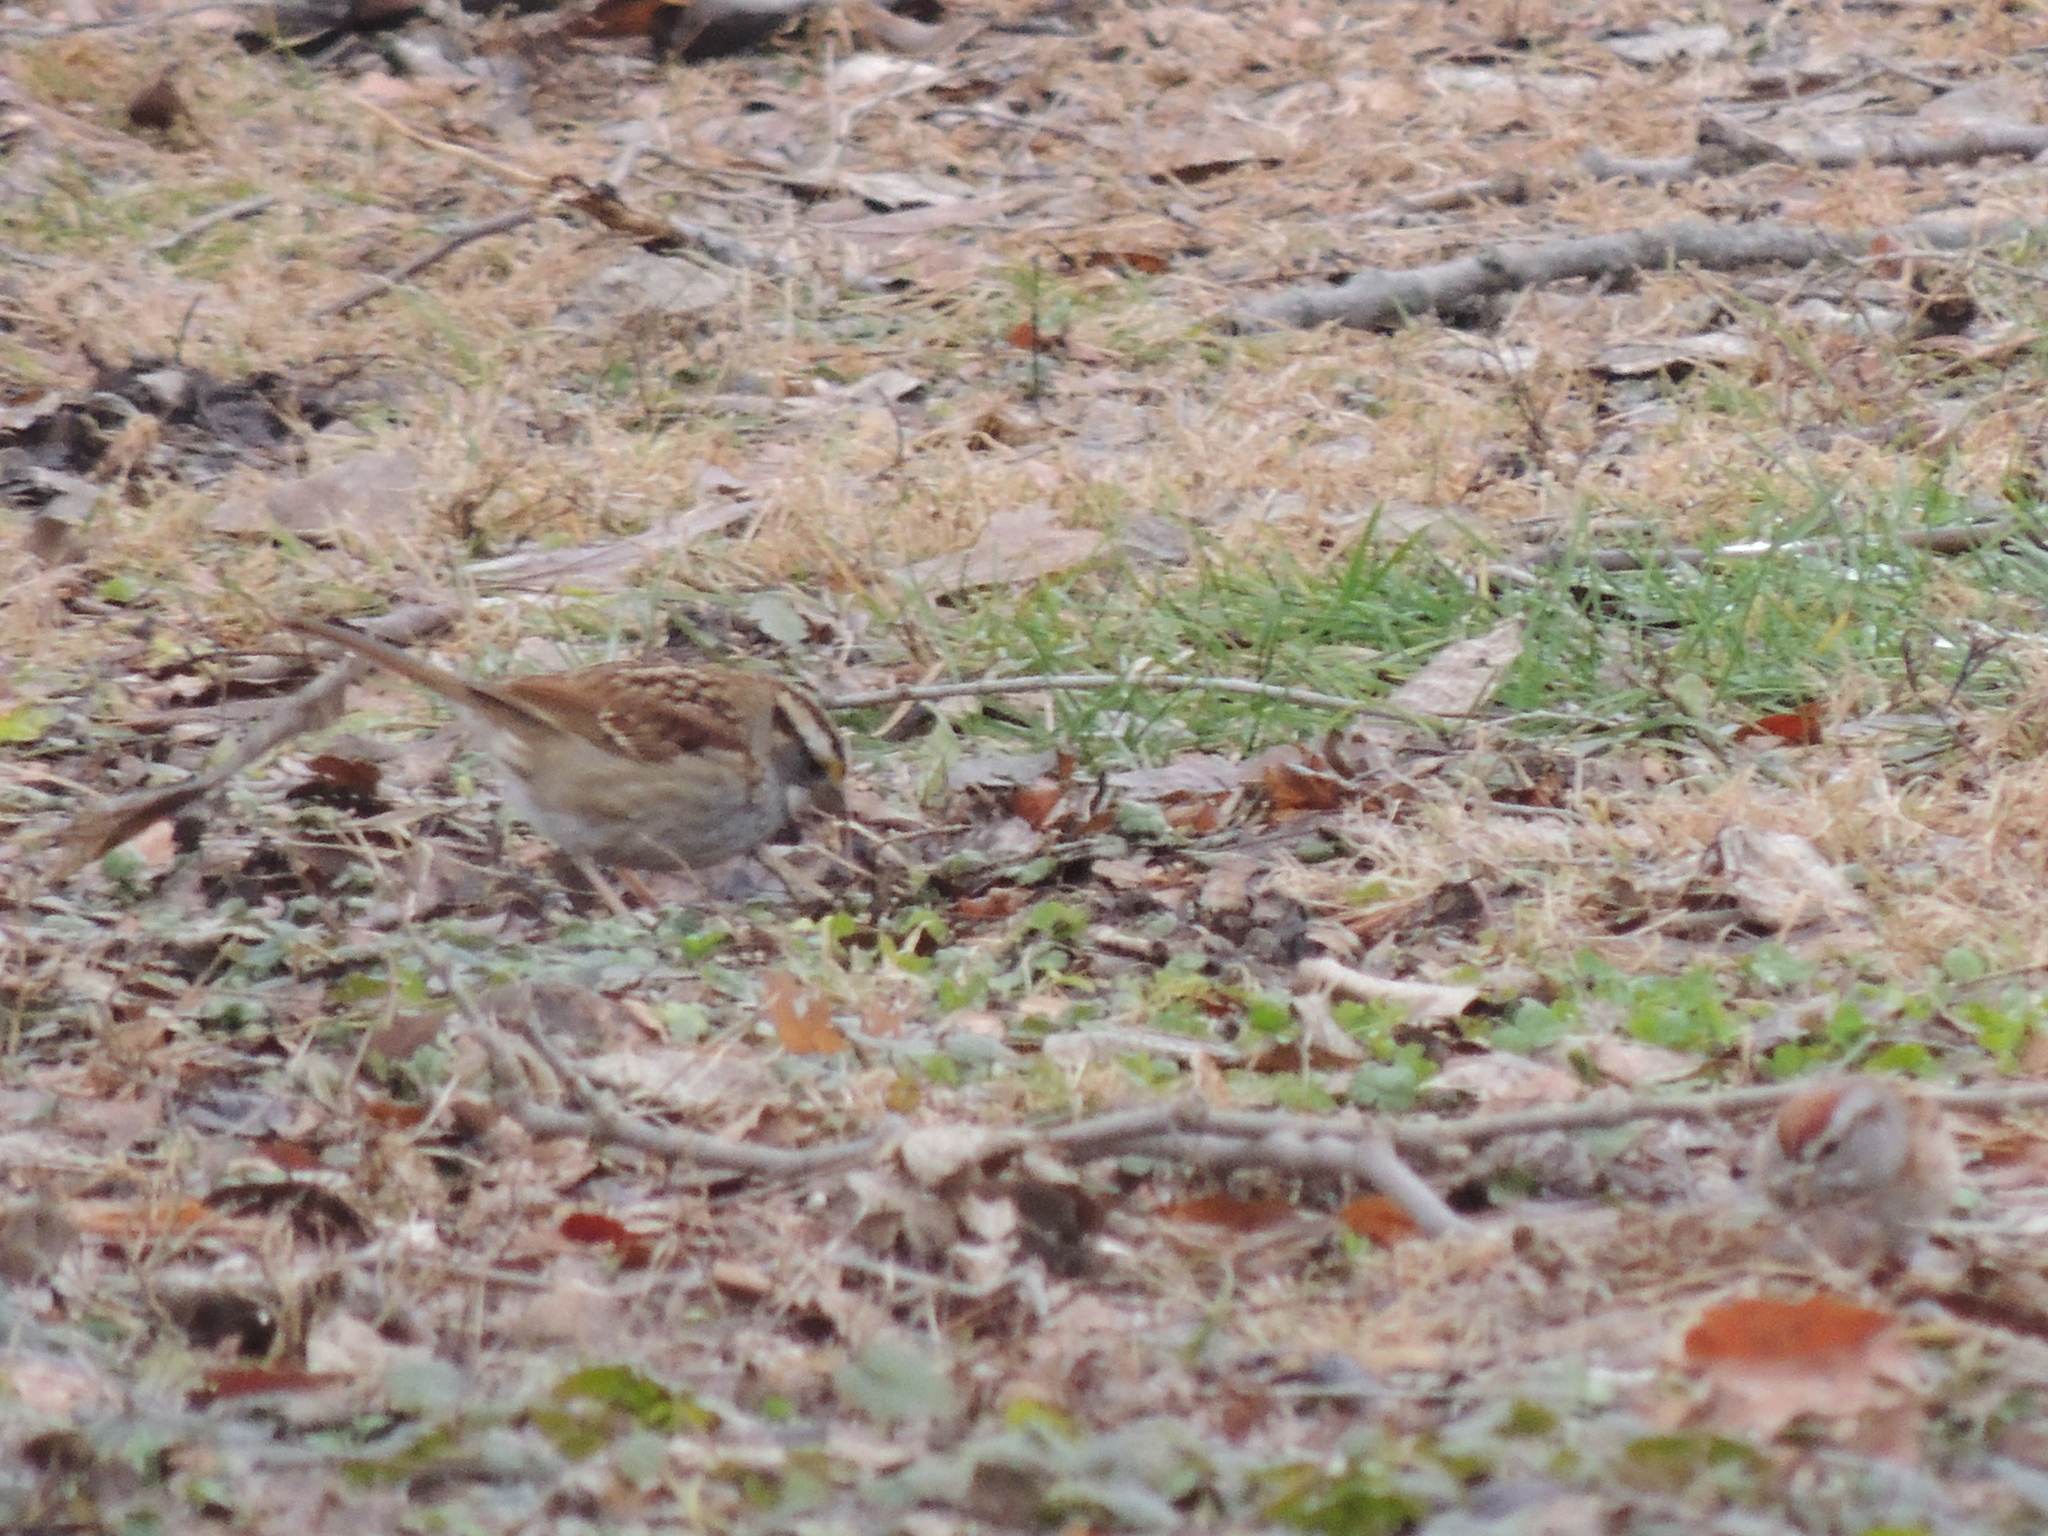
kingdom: Animalia
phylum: Chordata
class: Aves
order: Passeriformes
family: Passerellidae
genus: Zonotrichia
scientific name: Zonotrichia albicollis
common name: White-throated sparrow
